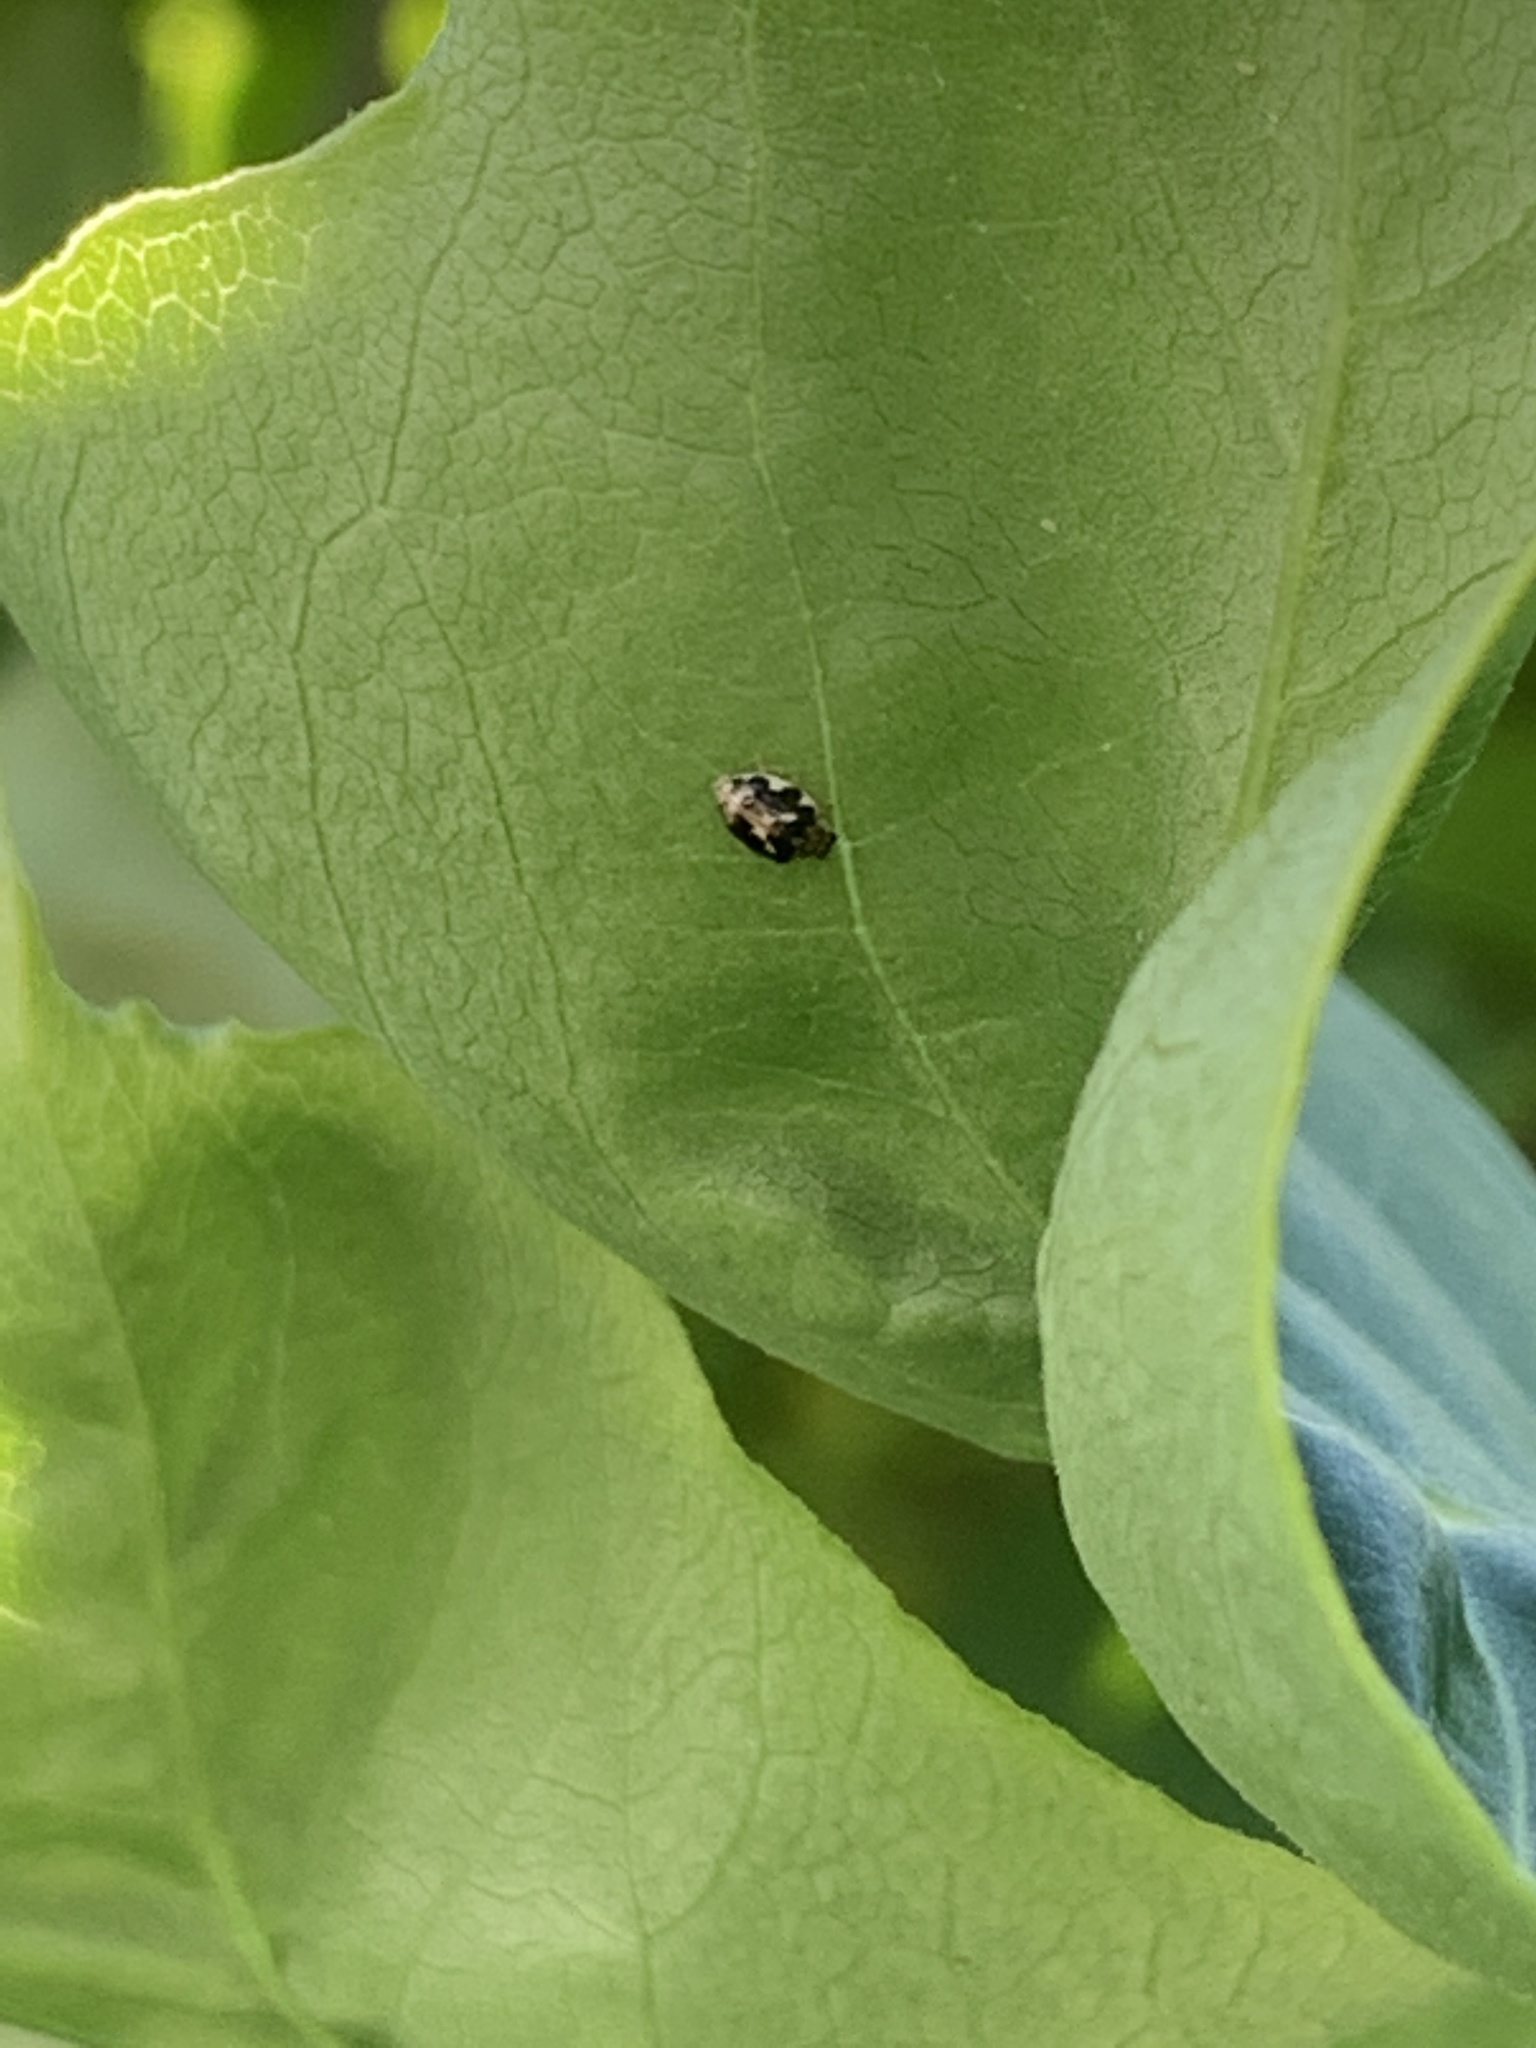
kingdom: Animalia
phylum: Arthropoda
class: Insecta
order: Coleoptera
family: Coccinellidae
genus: Psyllobora
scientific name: Psyllobora vigintimaculata
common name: Ladybird beetle
